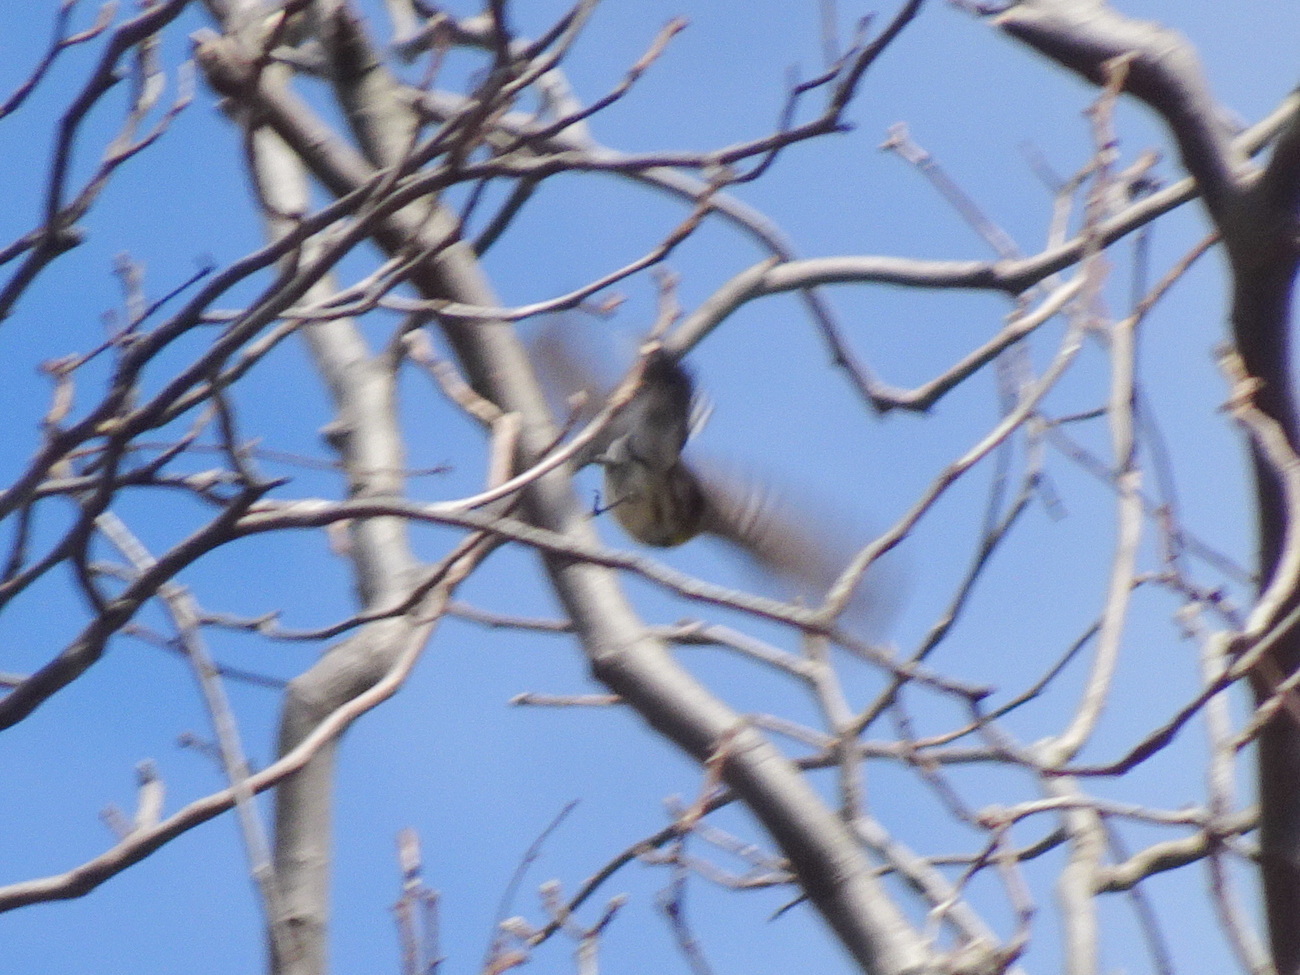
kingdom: Animalia
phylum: Chordata
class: Aves
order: Passeriformes
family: Parulidae
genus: Setophaga
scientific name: Setophaga coronata
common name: Myrtle warbler
